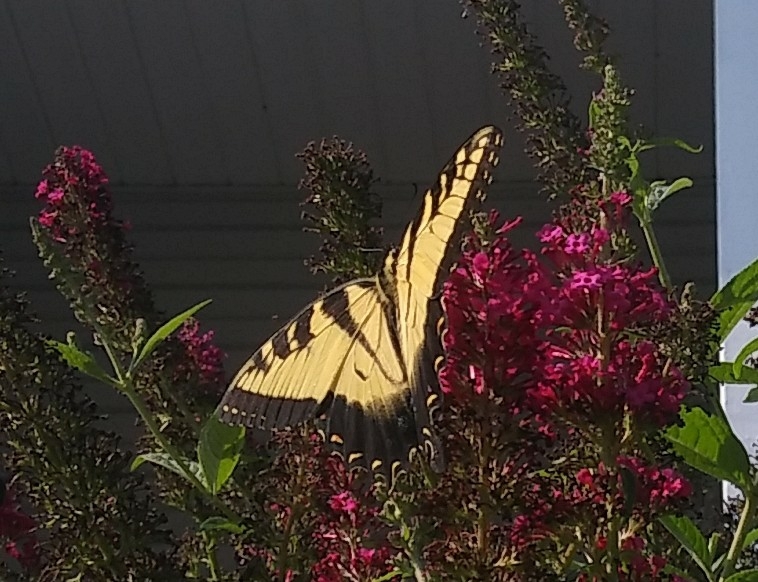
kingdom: Animalia
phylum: Arthropoda
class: Insecta
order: Lepidoptera
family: Papilionidae
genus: Papilio
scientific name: Papilio glaucus
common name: Tiger swallowtail
